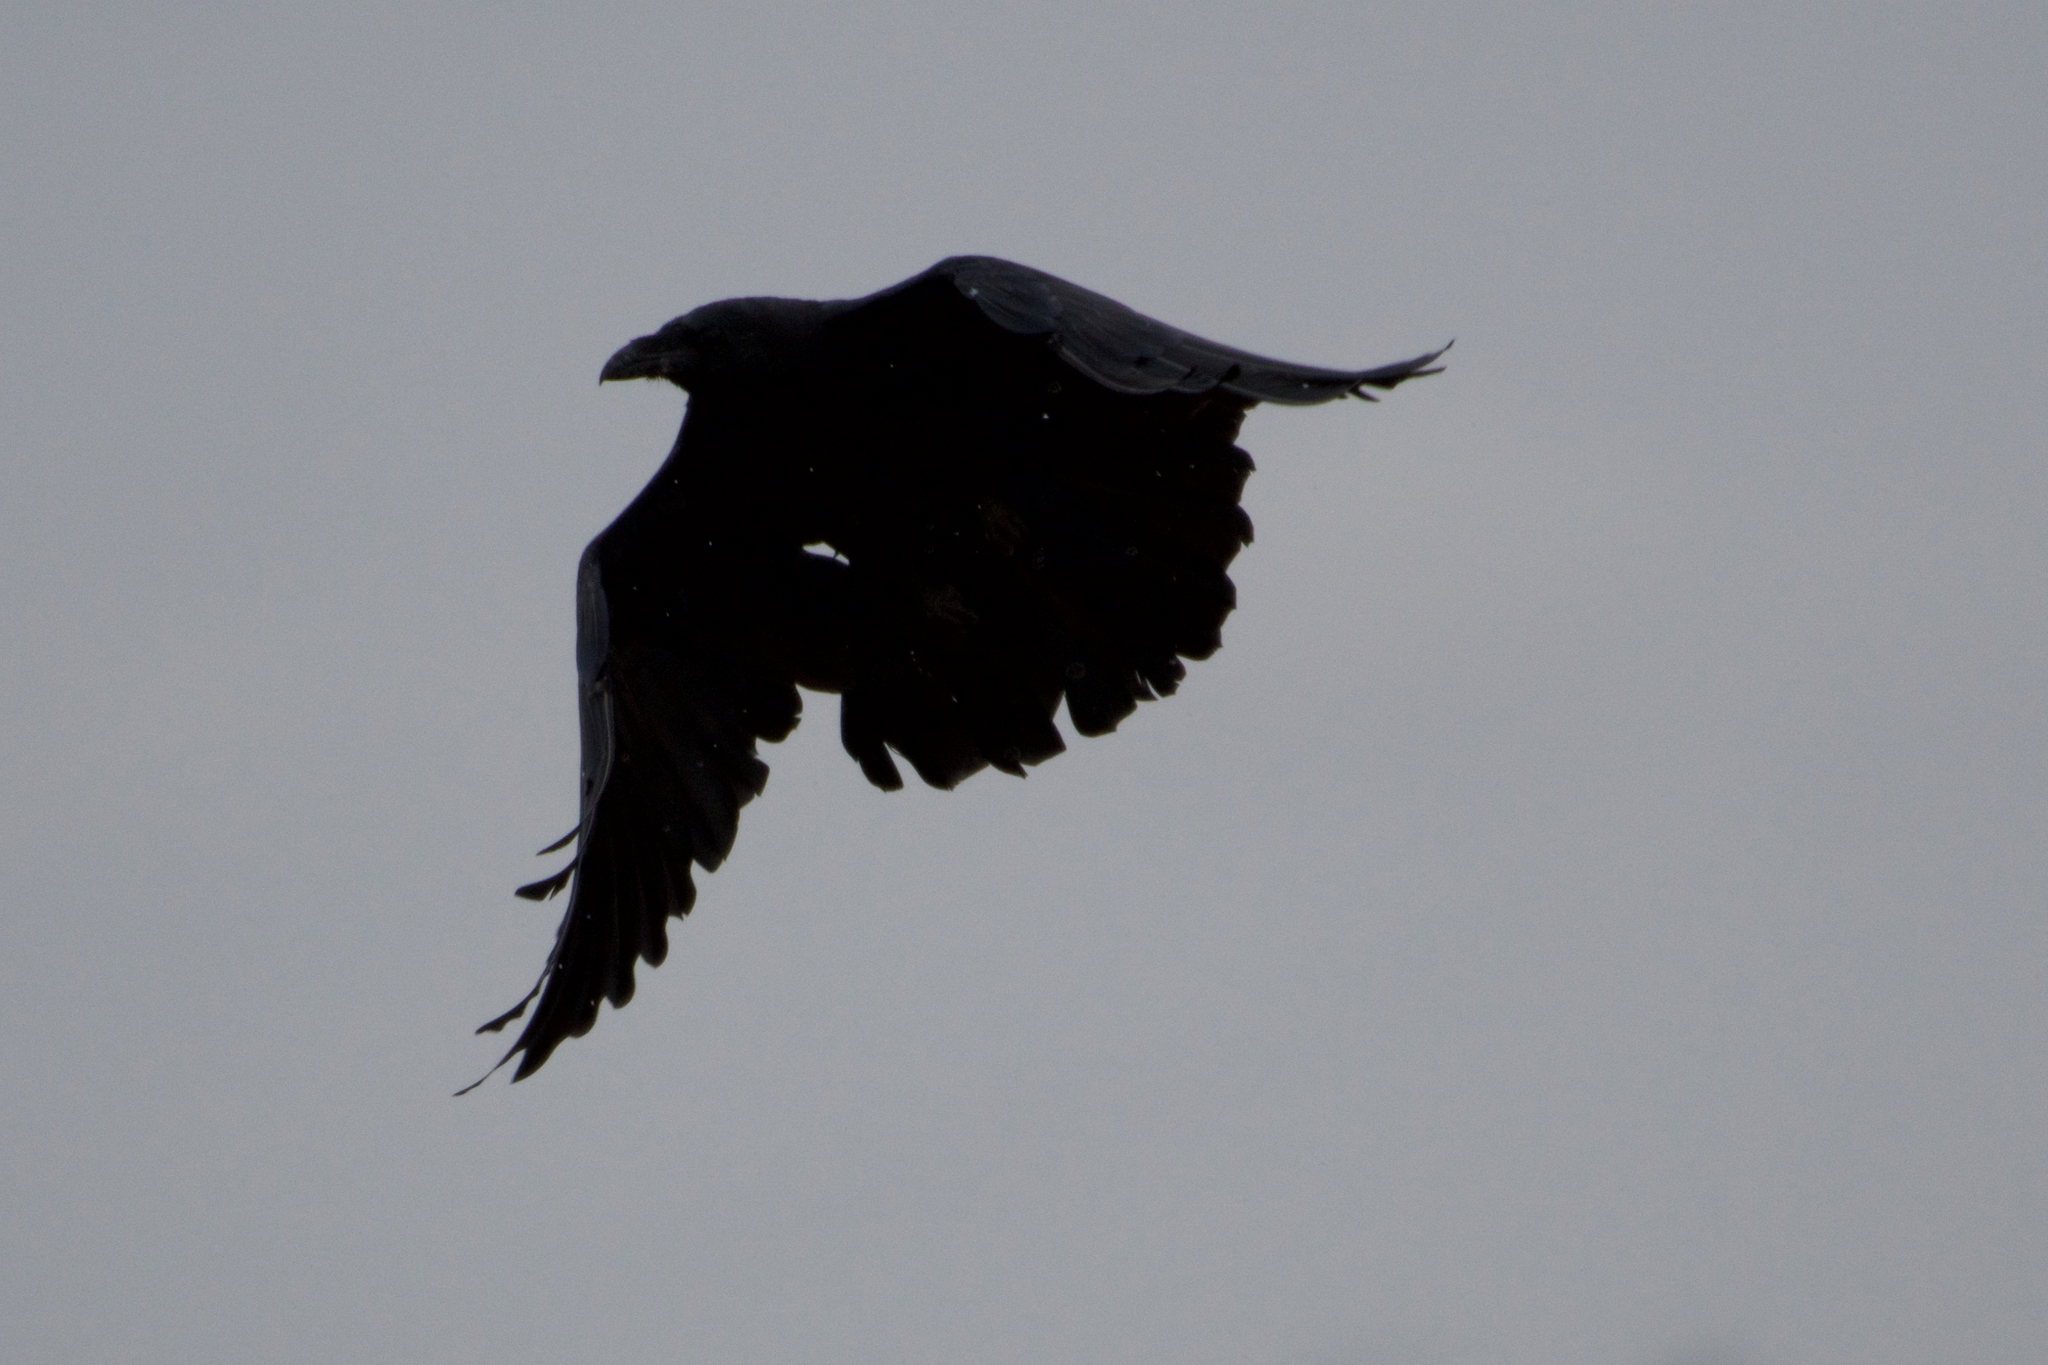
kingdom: Animalia
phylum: Chordata
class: Aves
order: Passeriformes
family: Corvidae
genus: Corvus
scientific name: Corvus corax
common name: Common raven
